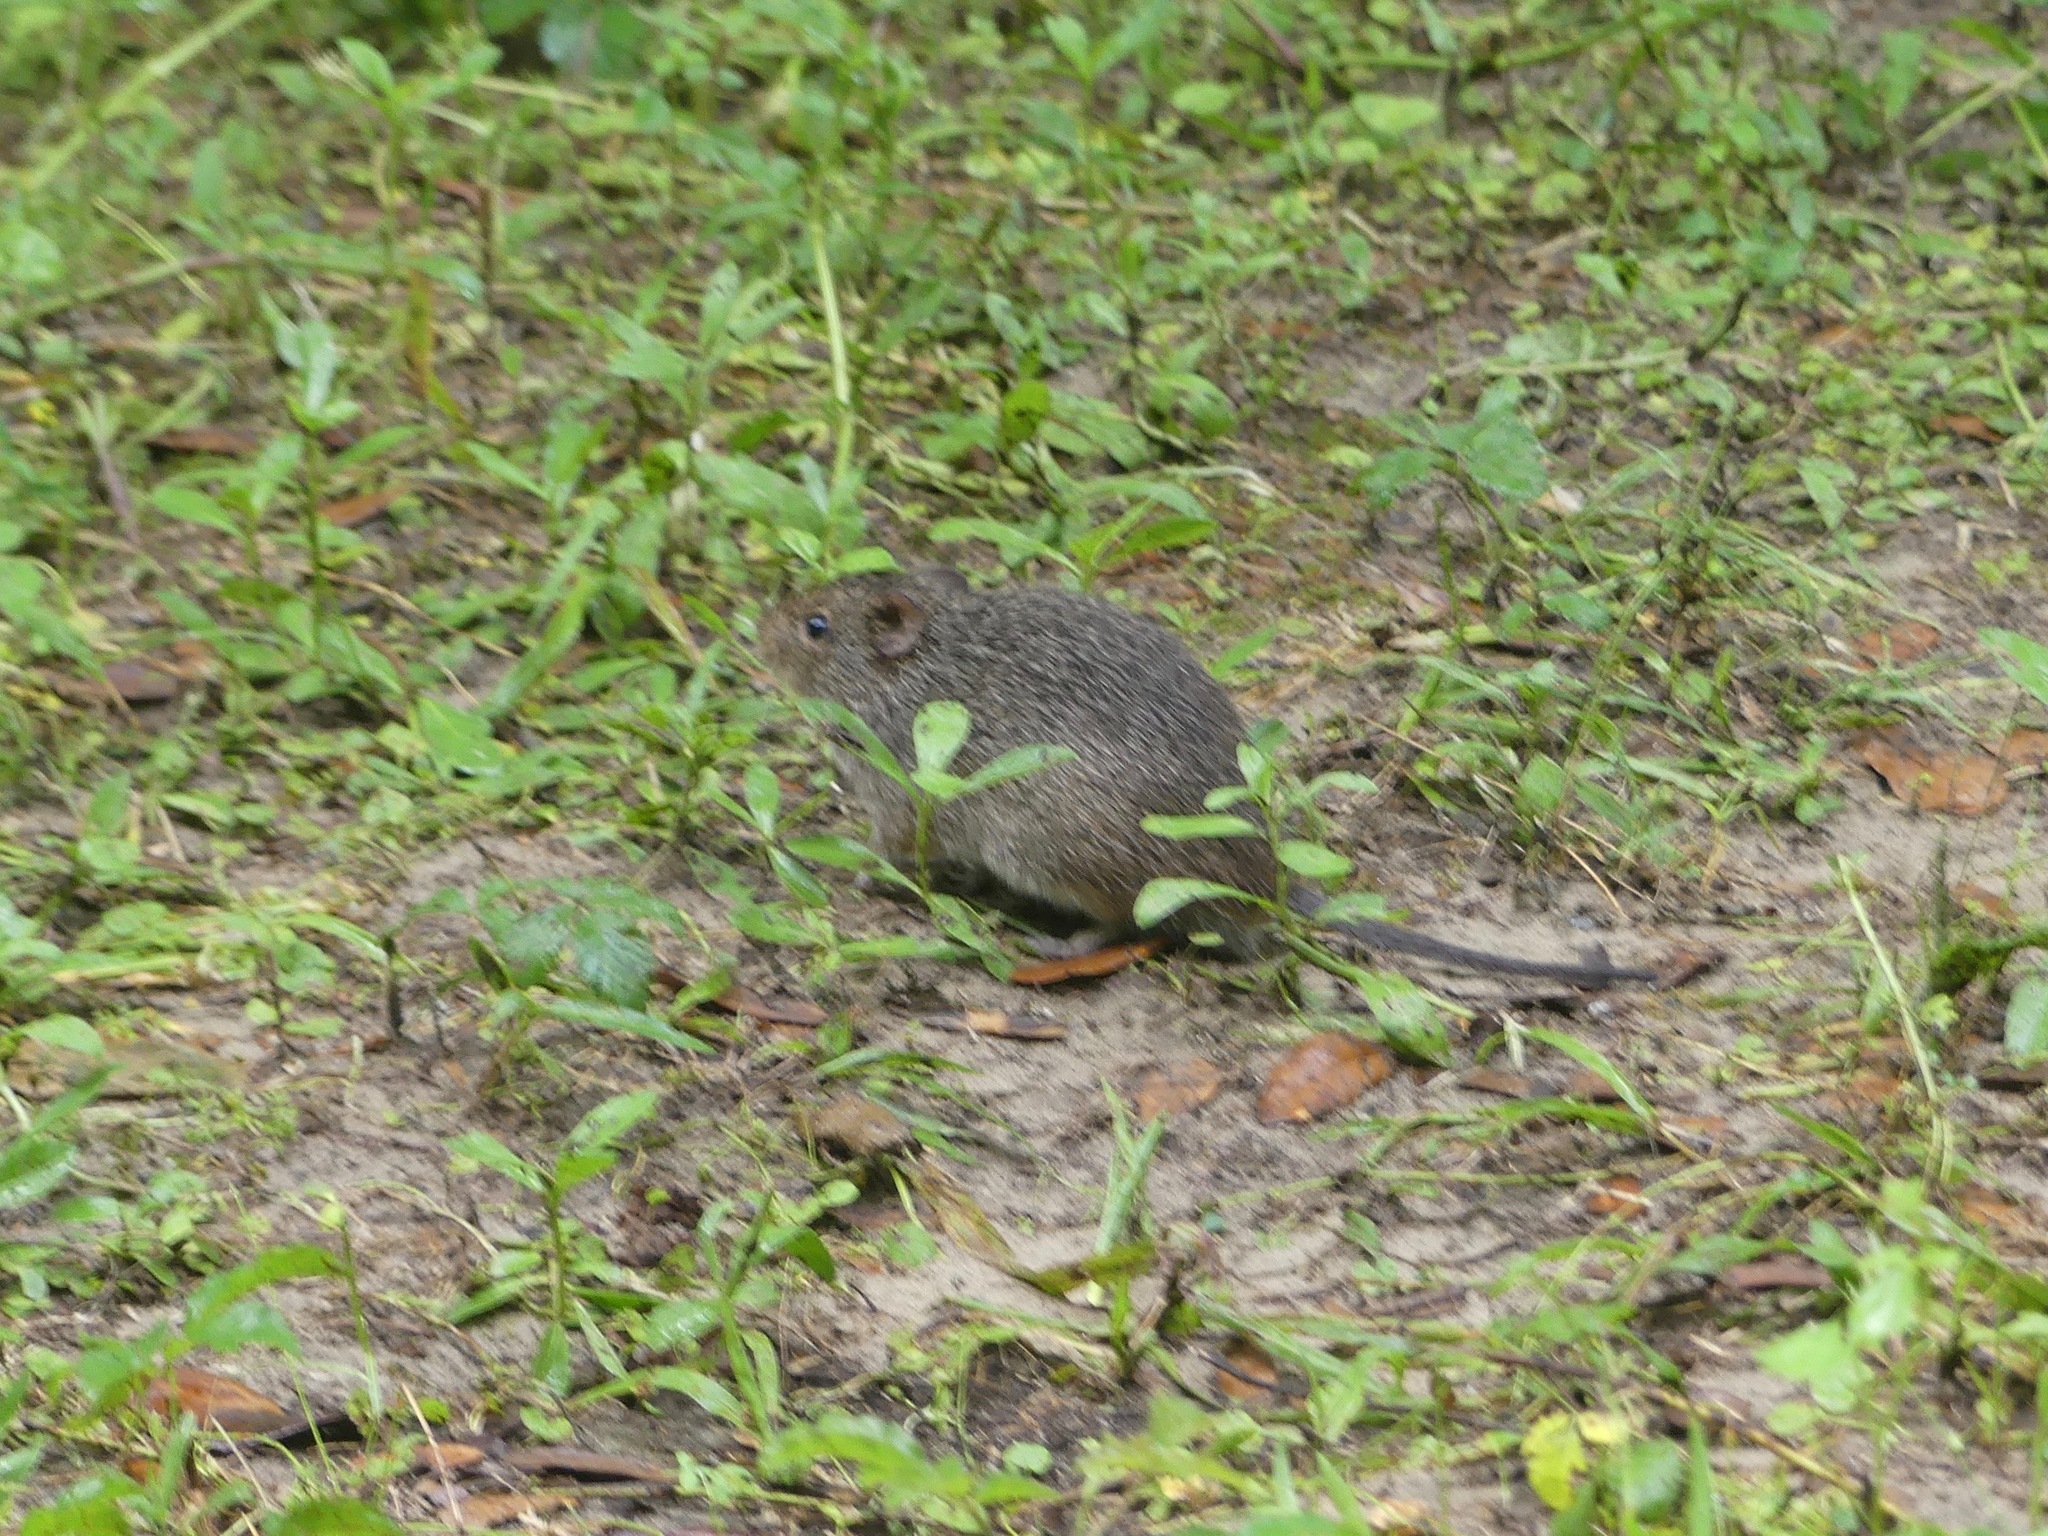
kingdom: Animalia
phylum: Chordata
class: Mammalia
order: Rodentia
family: Cricetidae
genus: Sigmodon
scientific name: Sigmodon hispidus
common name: Hispid cotton rat
